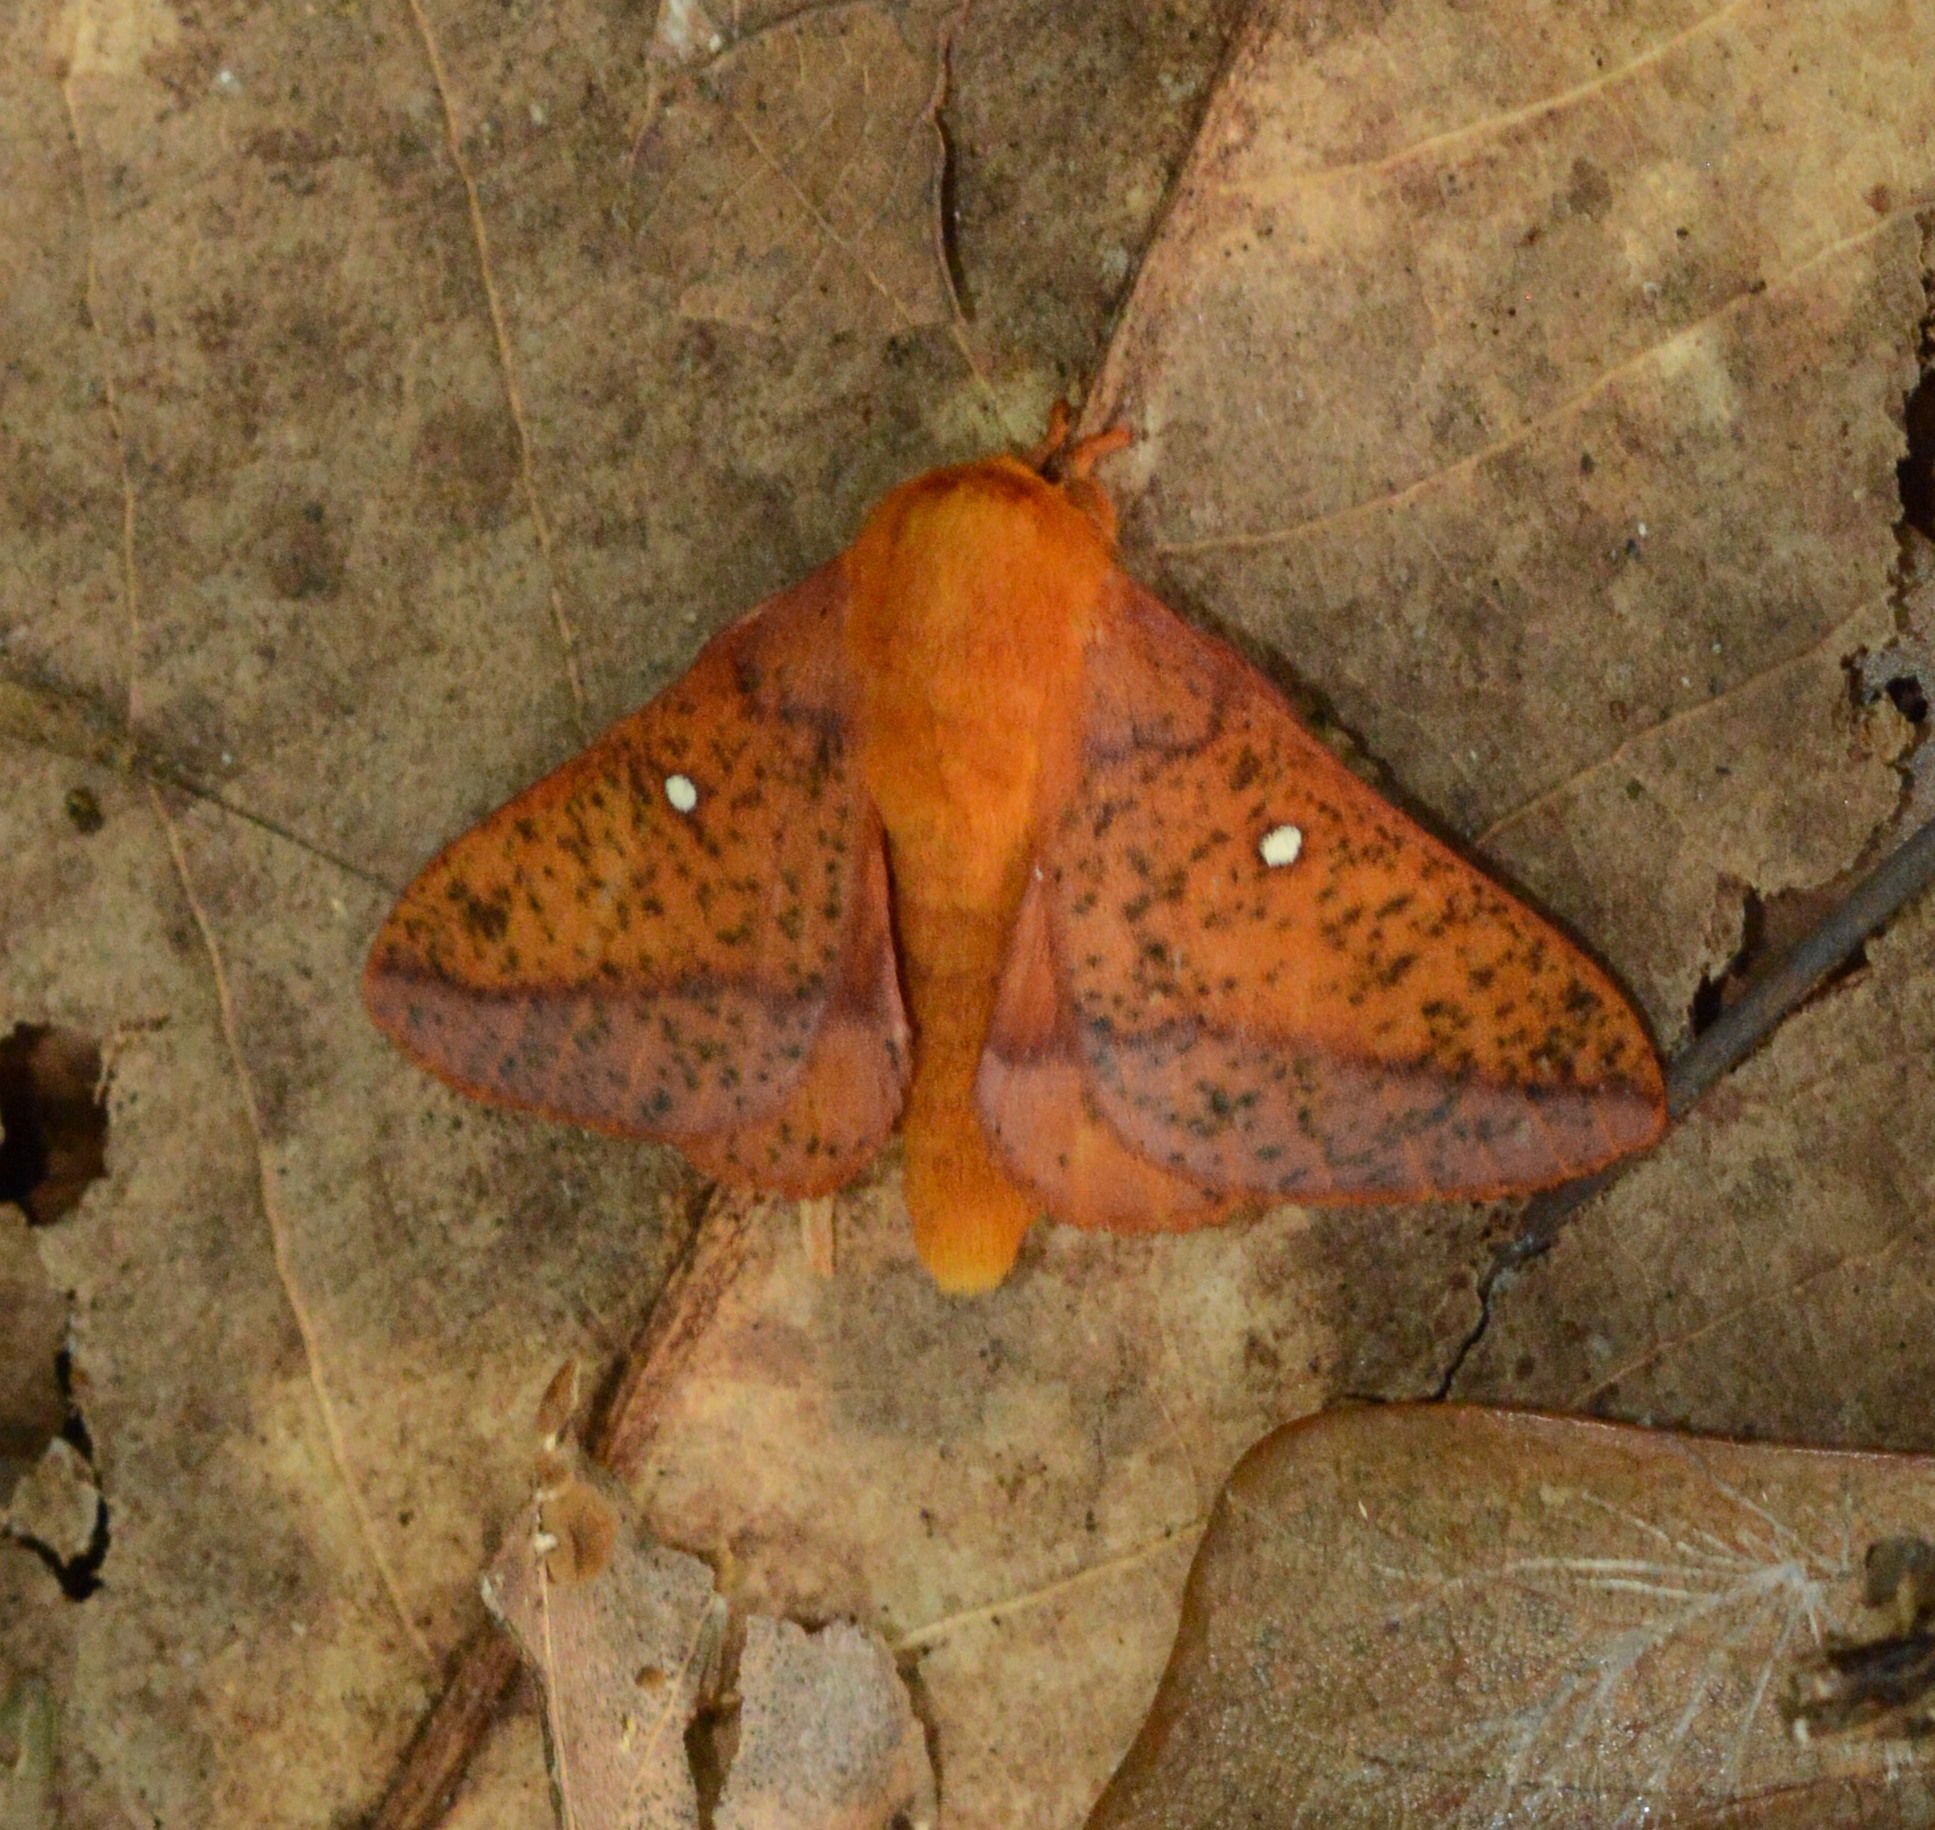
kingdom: Animalia
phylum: Arthropoda
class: Insecta
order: Lepidoptera
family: Saturniidae
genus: Anisota
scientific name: Anisota stigma
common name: Spiny oakworm moth
